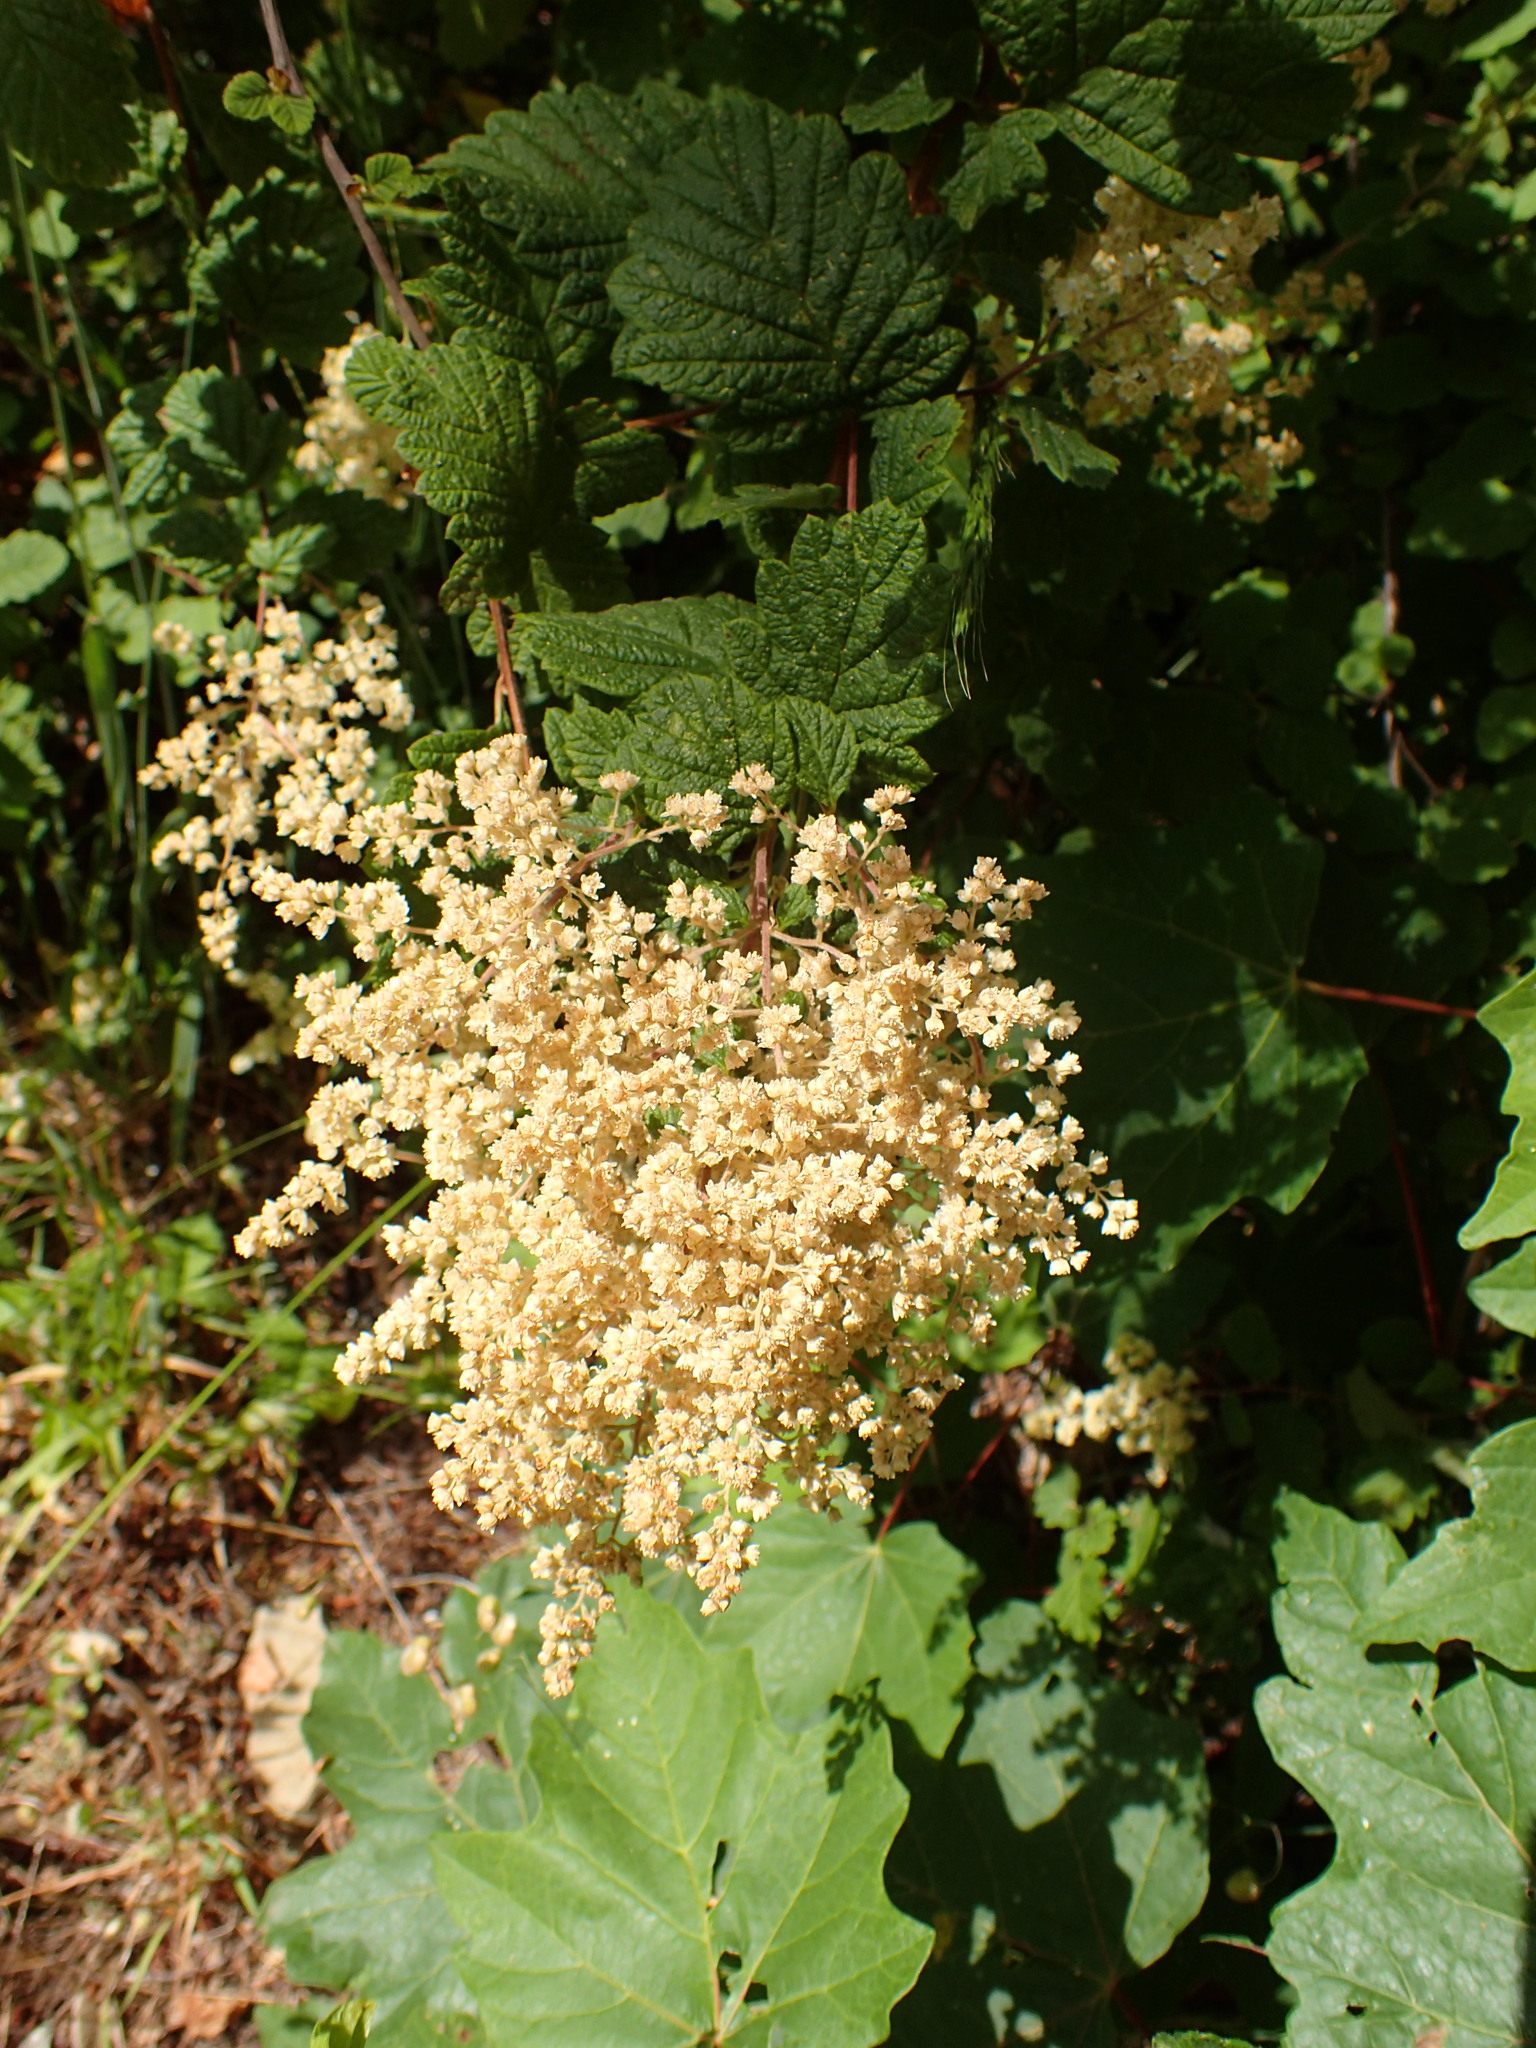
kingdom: Plantae
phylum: Tracheophyta
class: Magnoliopsida
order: Rosales
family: Rosaceae
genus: Holodiscus
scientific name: Holodiscus discolor
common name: Oceanspray
